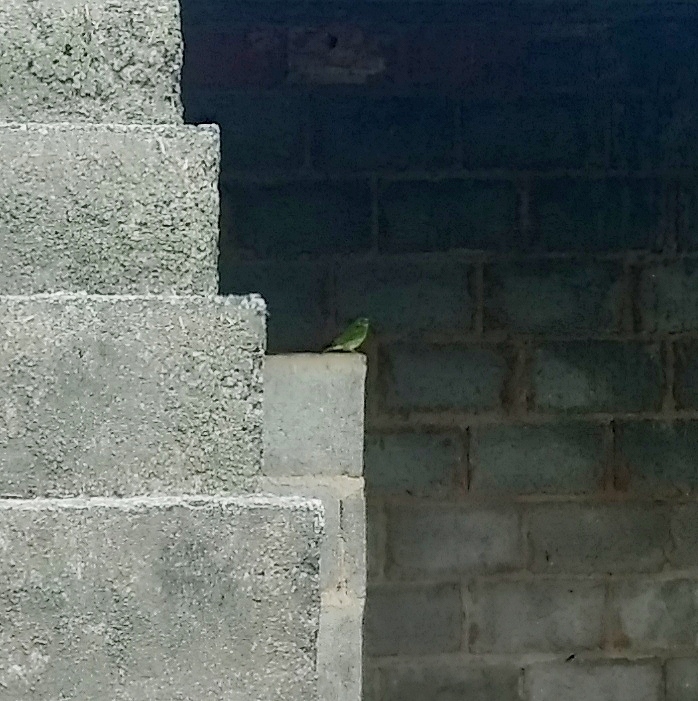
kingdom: Animalia
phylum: Chordata
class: Aves
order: Passeriformes
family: Thraupidae
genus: Tersina
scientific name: Tersina viridis
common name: Swallow tanager
